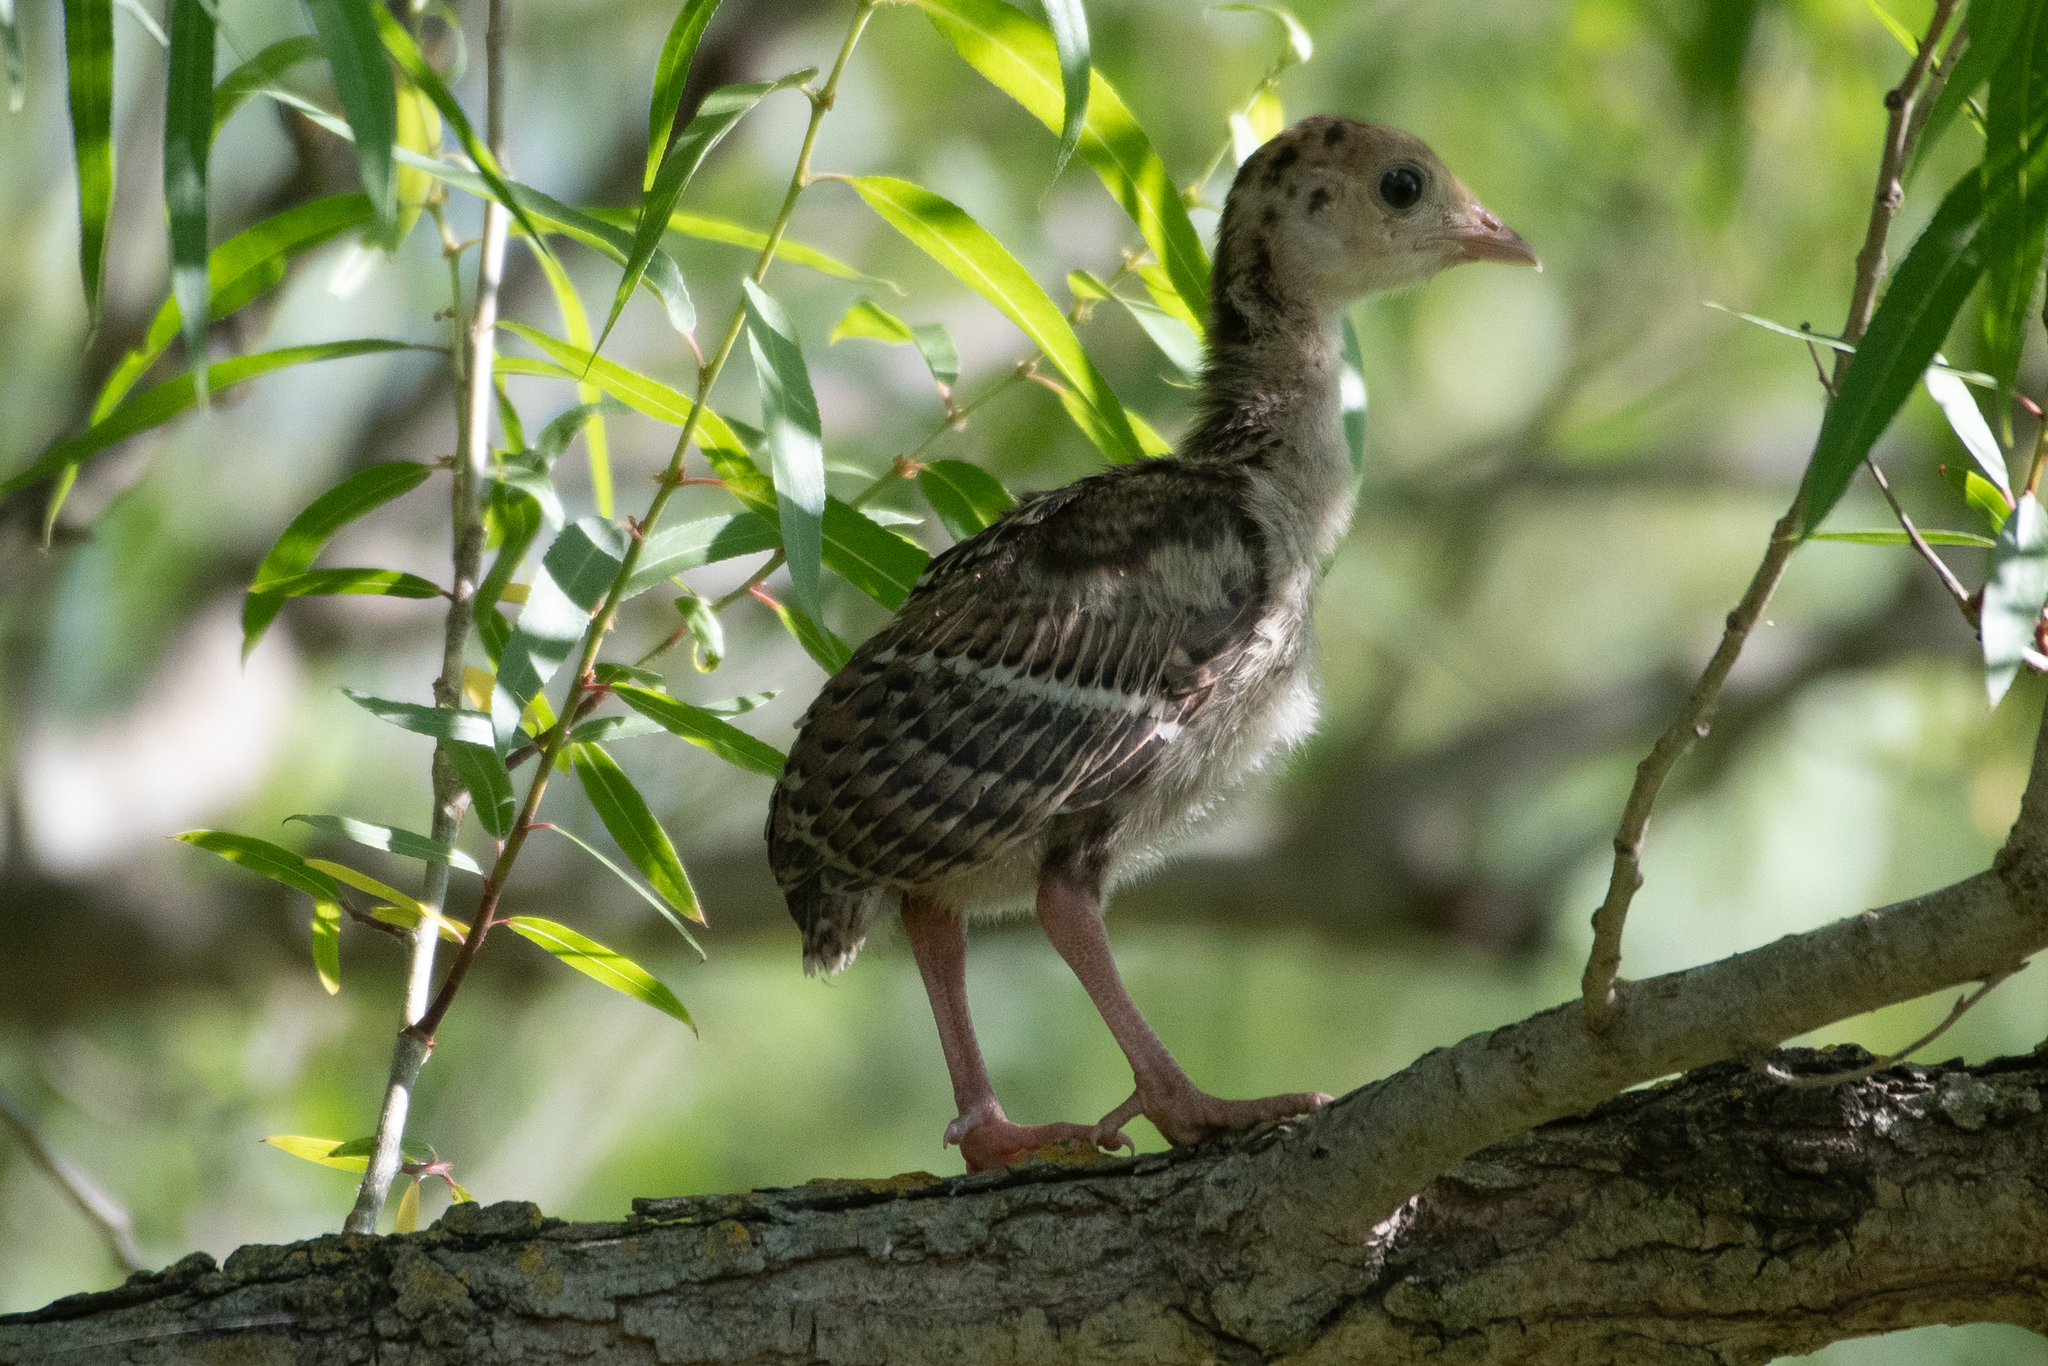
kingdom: Animalia
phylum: Chordata
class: Aves
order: Galliformes
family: Phasianidae
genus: Meleagris
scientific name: Meleagris gallopavo
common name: Wild turkey
